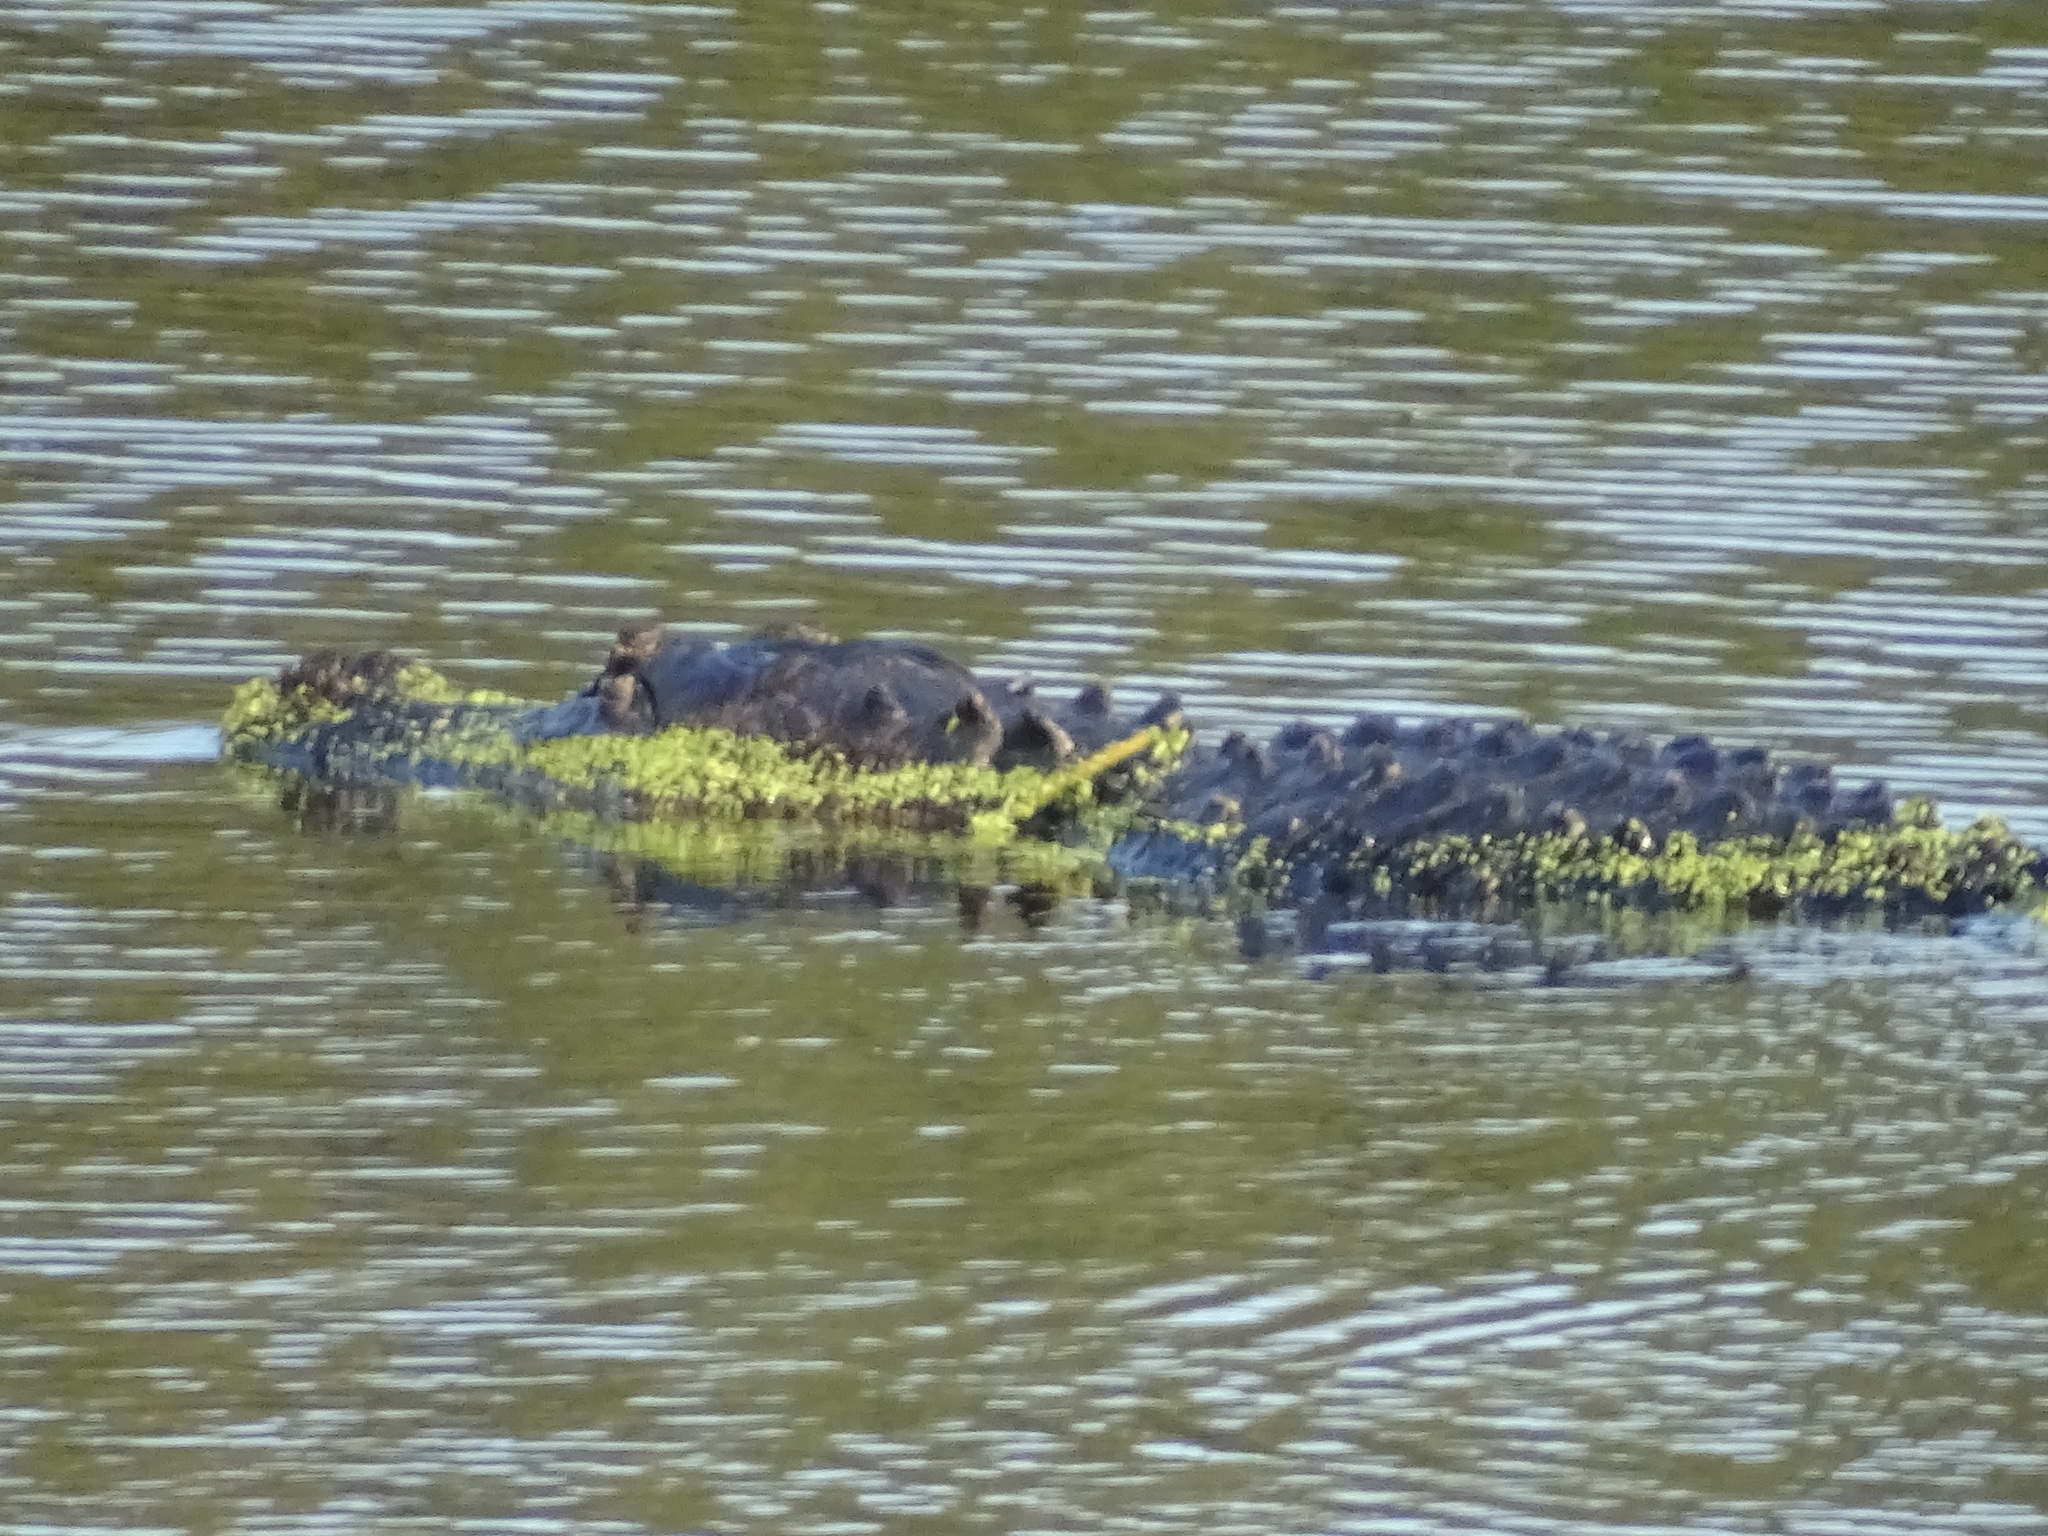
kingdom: Animalia
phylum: Chordata
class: Crocodylia
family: Alligatoridae
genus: Alligator
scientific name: Alligator mississippiensis
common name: American alligator
